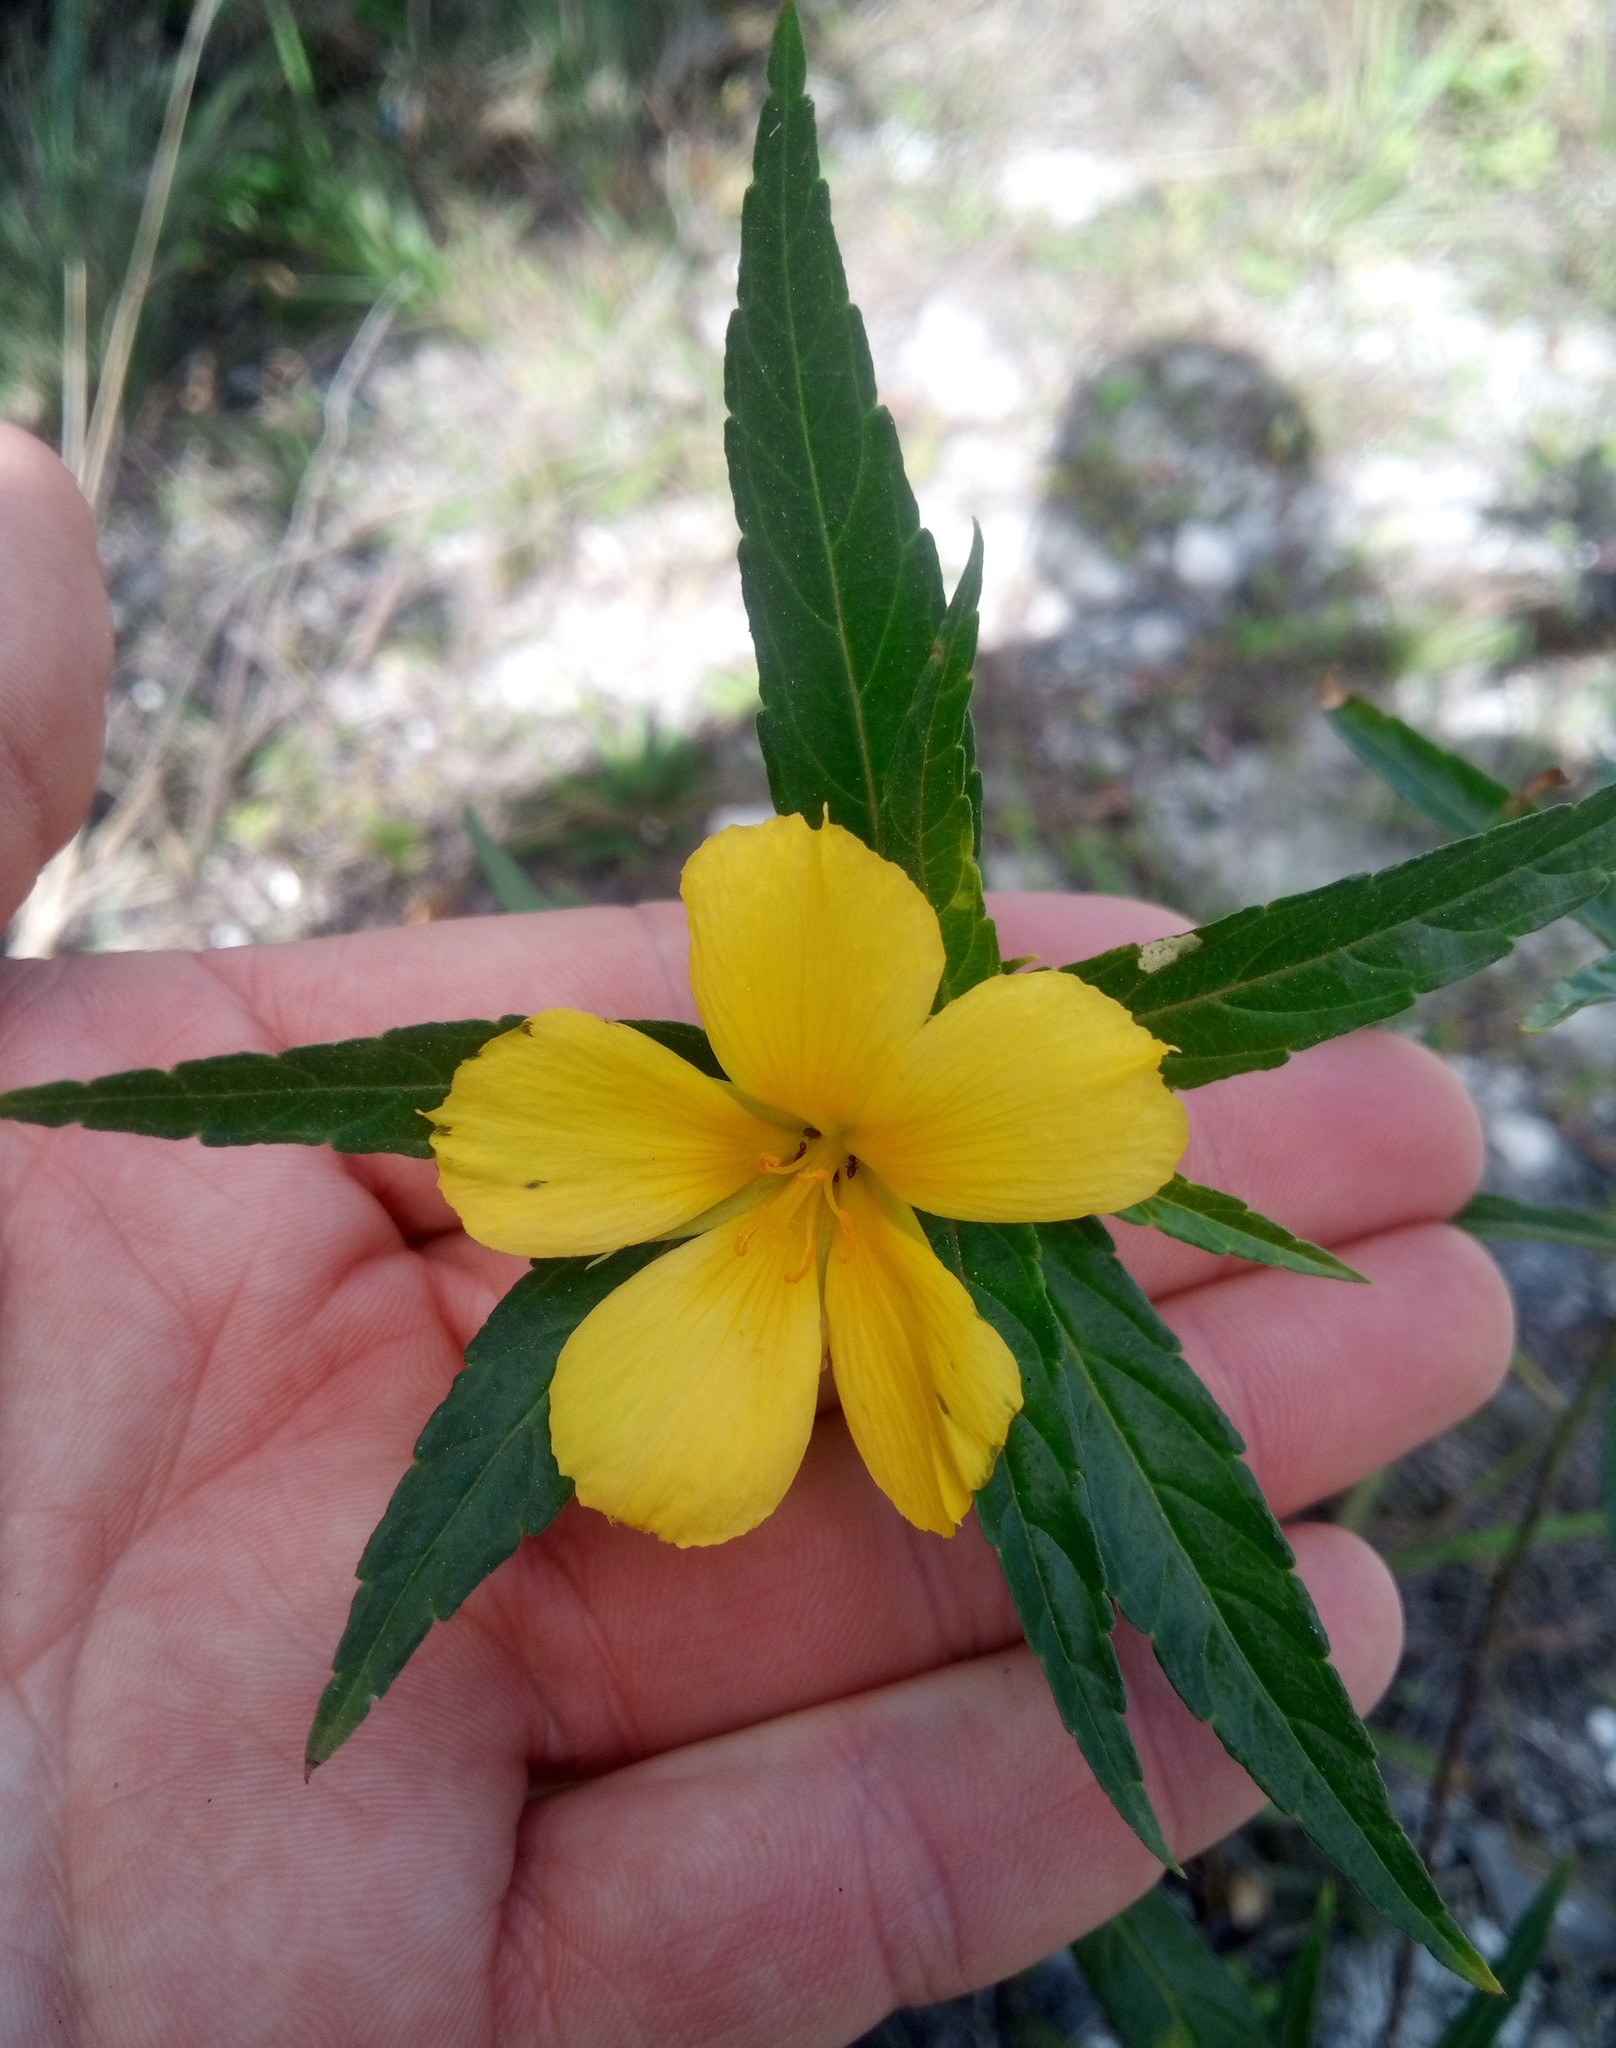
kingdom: Plantae
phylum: Tracheophyta
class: Magnoliopsida
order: Malpighiales
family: Turneraceae
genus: Turnera
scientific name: Turnera ulmifolia
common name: Ramgoat dashalong
